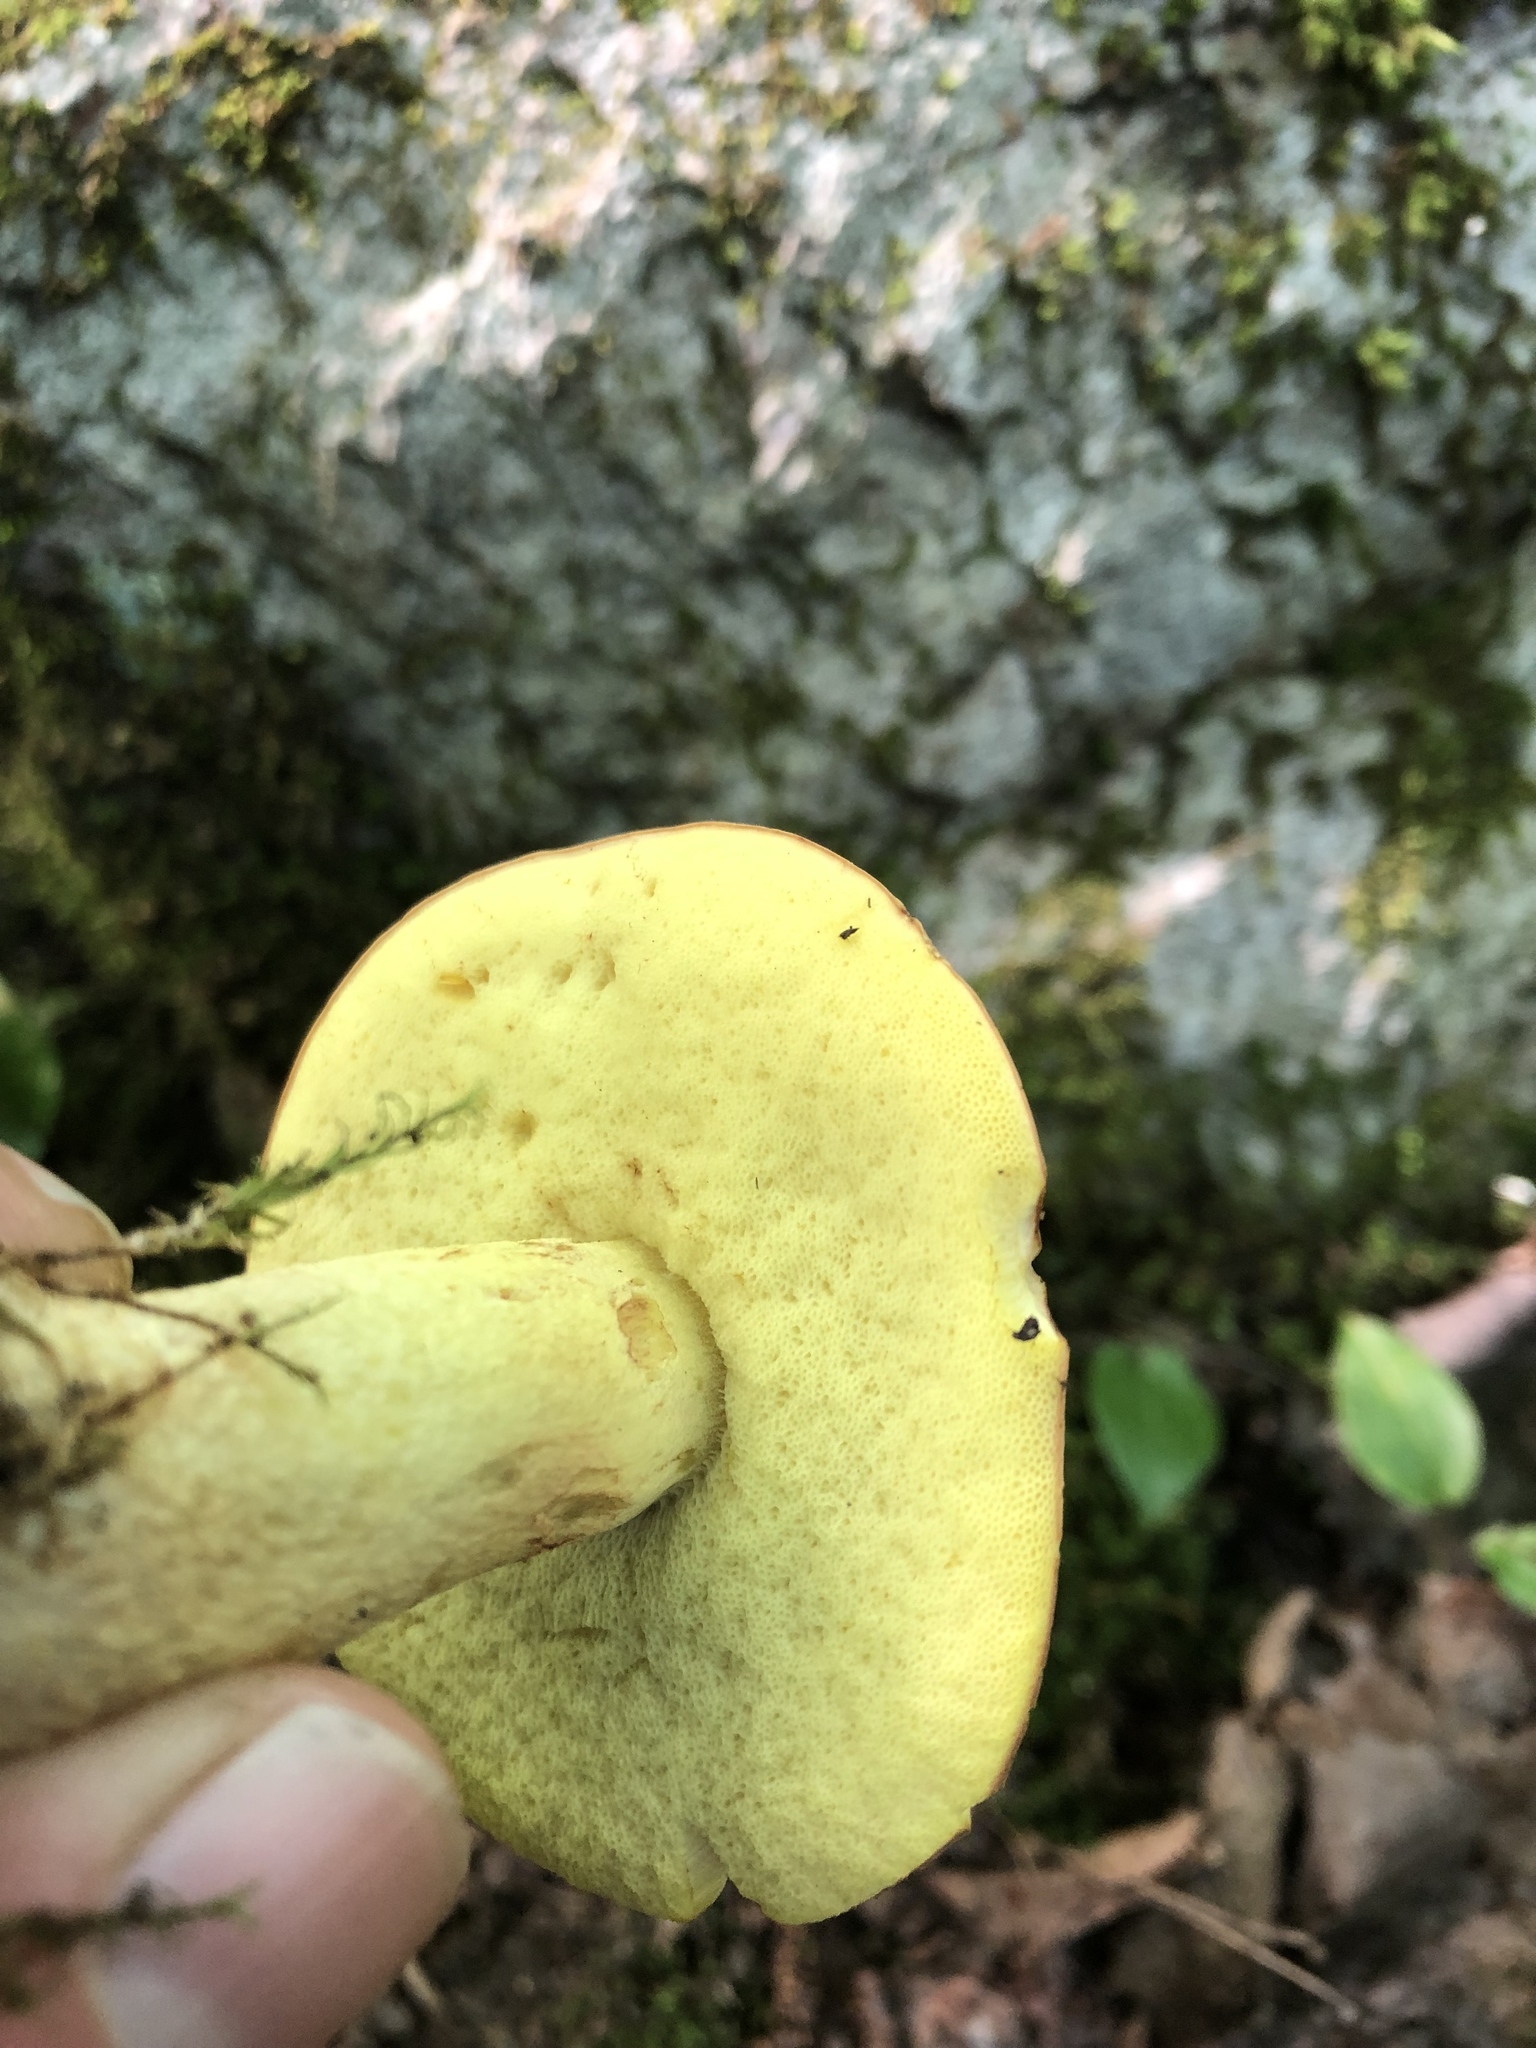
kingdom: Fungi
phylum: Basidiomycota
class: Agaricomycetes
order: Boletales
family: Boletaceae
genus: Hemileccinum
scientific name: Hemileccinum subglabripes
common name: Smoothish-stemmed bolete
